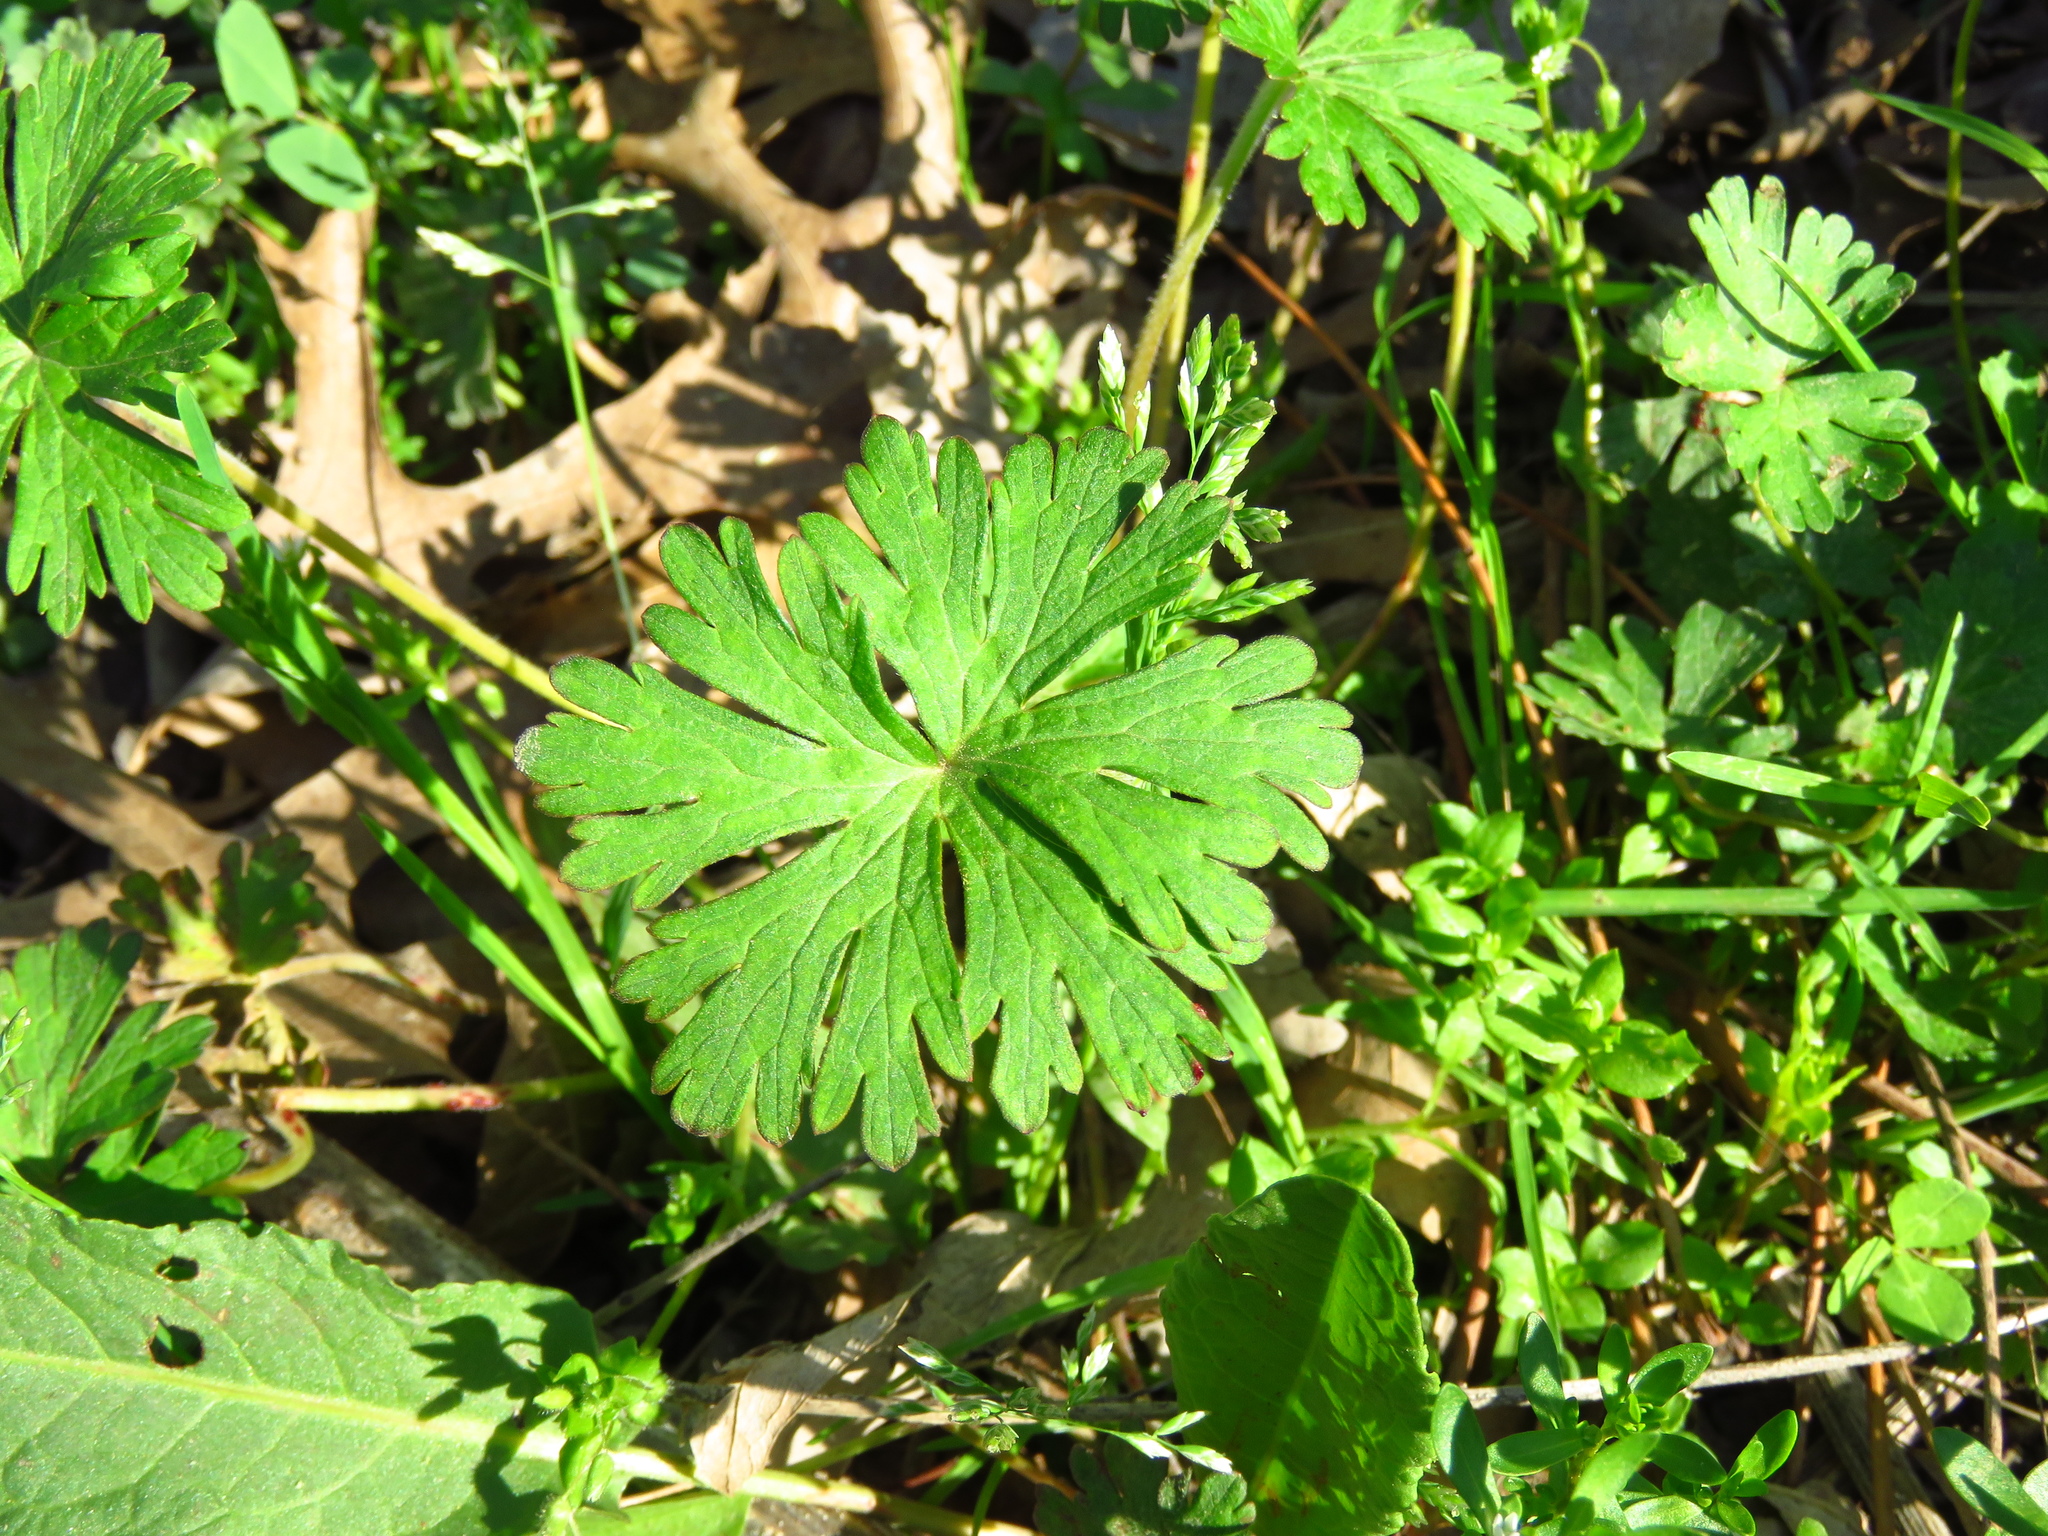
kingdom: Plantae
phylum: Tracheophyta
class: Magnoliopsida
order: Geraniales
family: Geraniaceae
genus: Geranium
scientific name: Geranium carolinianum
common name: Carolina crane's-bill
